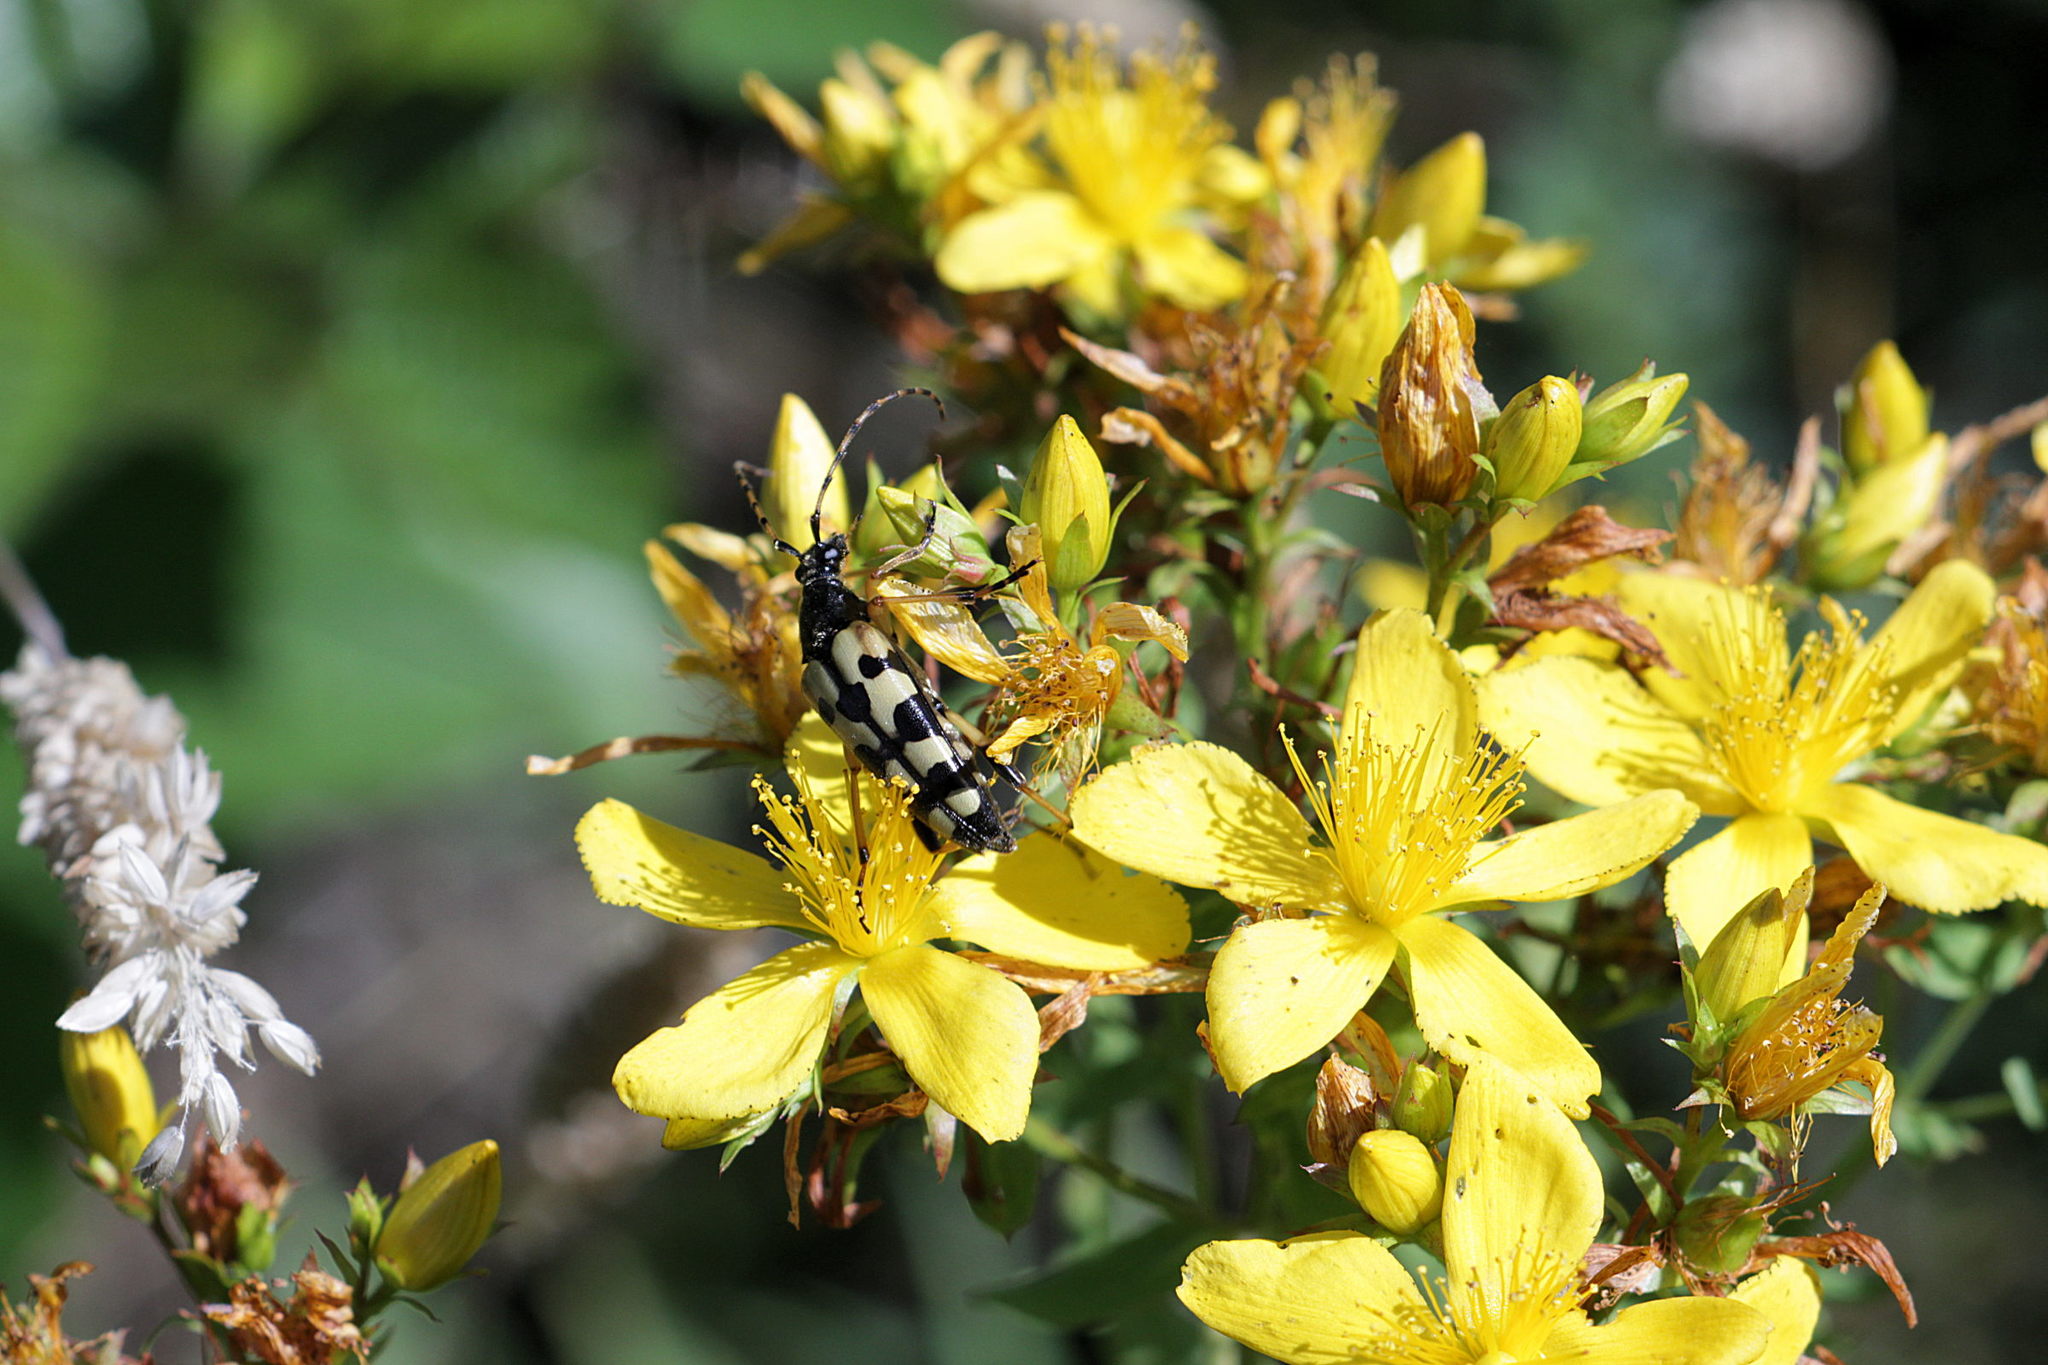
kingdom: Animalia
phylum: Arthropoda
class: Insecta
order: Coleoptera
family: Cerambycidae
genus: Rutpela
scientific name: Rutpela maculata
